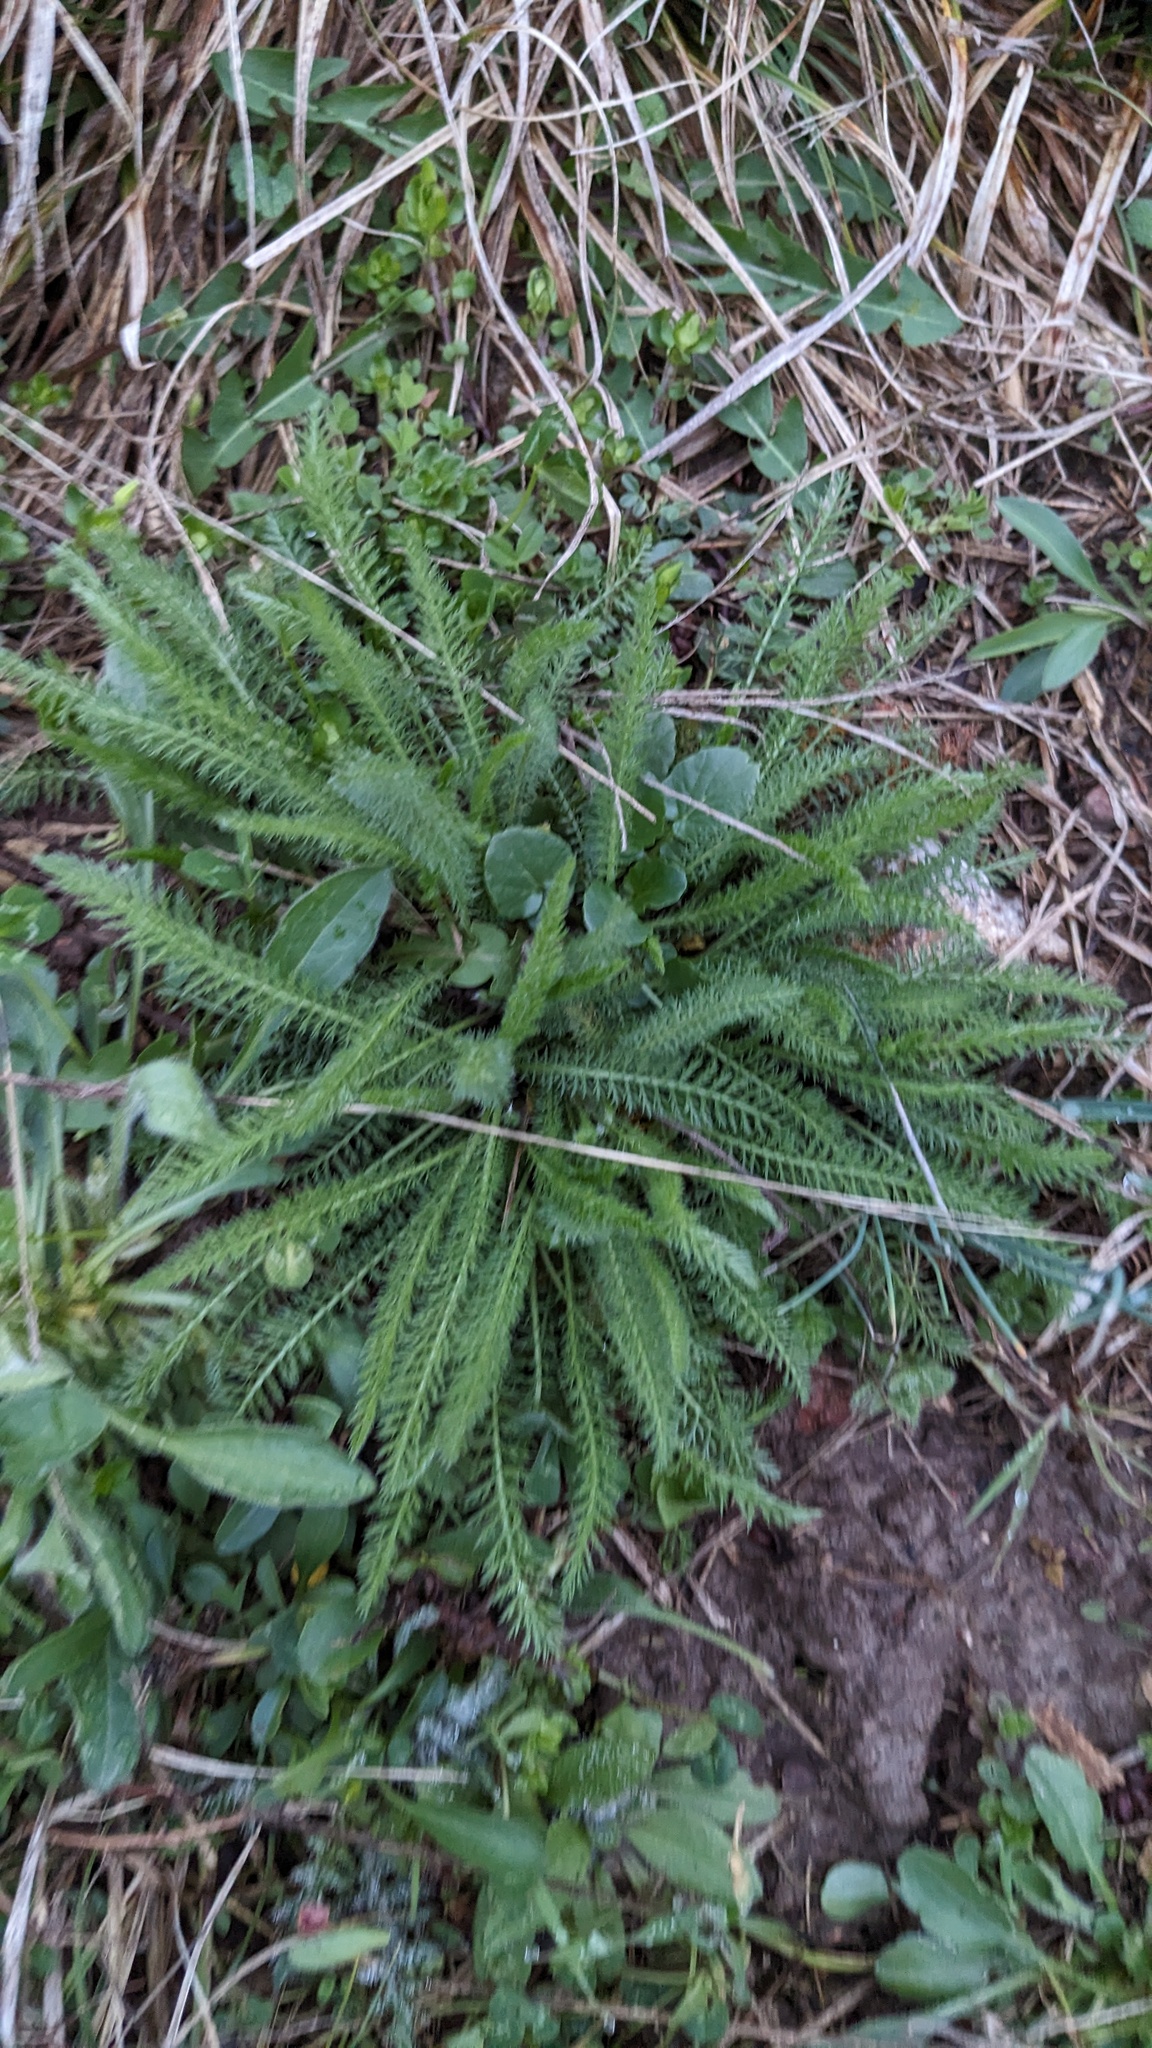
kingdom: Plantae
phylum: Tracheophyta
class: Magnoliopsida
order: Asterales
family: Asteraceae
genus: Achillea
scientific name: Achillea millefolium
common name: Yarrow
